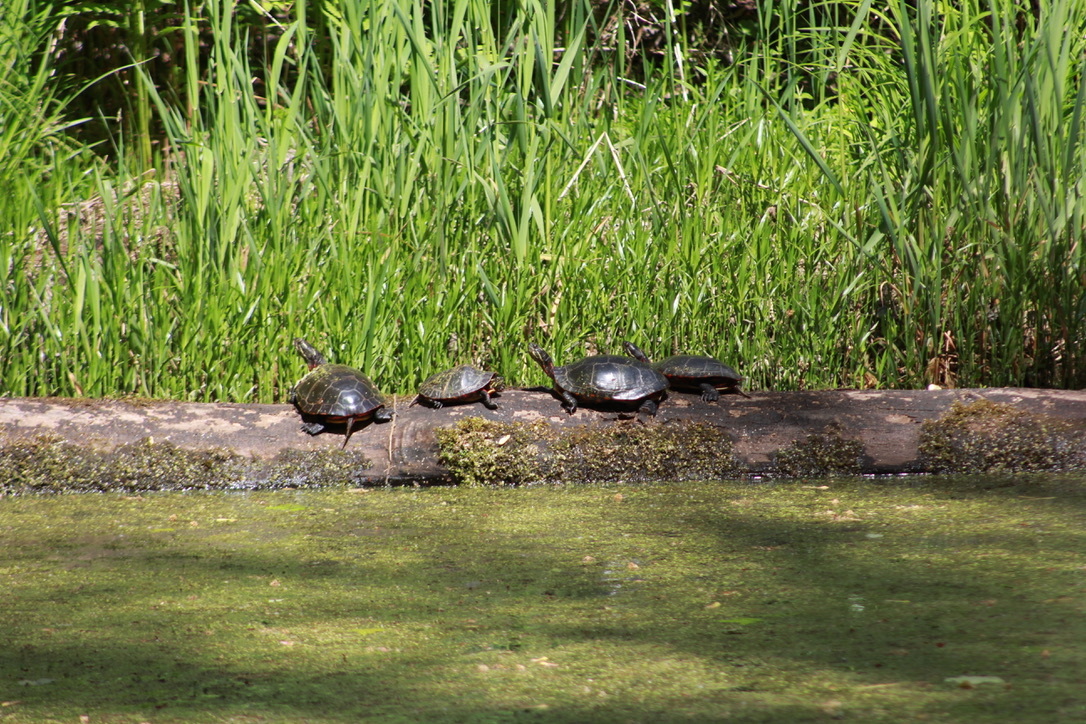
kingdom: Animalia
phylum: Chordata
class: Testudines
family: Emydidae
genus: Chrysemys
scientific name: Chrysemys picta
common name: Painted turtle
